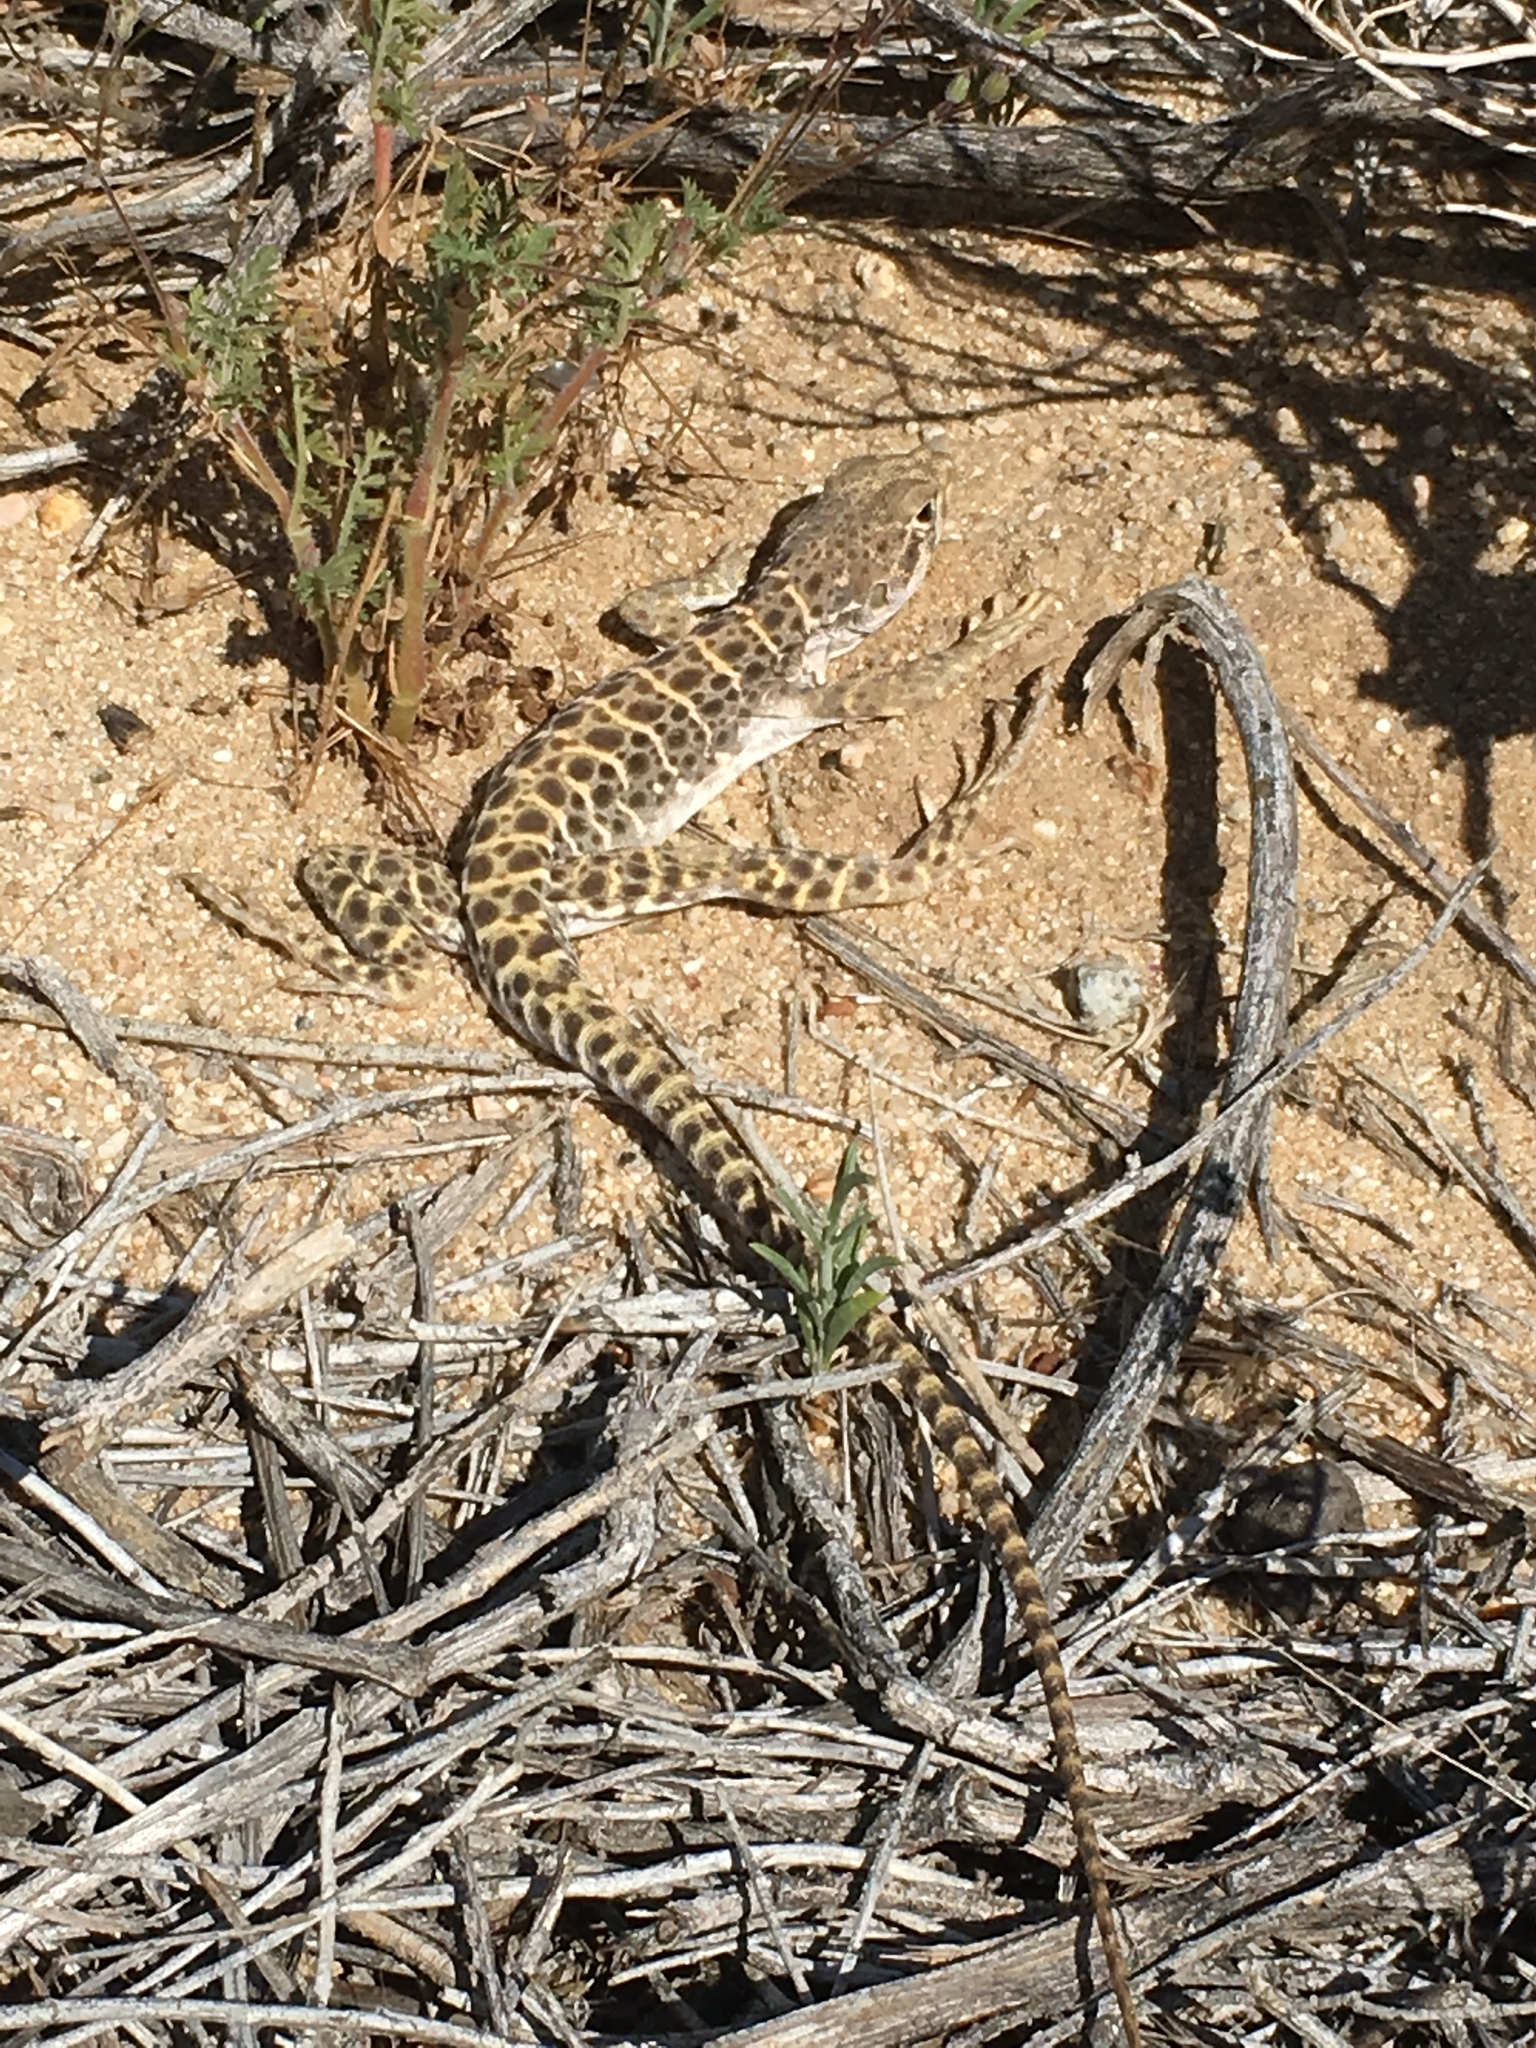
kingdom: Animalia
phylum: Chordata
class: Squamata
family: Crotaphytidae
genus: Gambelia
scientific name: Gambelia wislizenii
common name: Longnose leopard lizard
